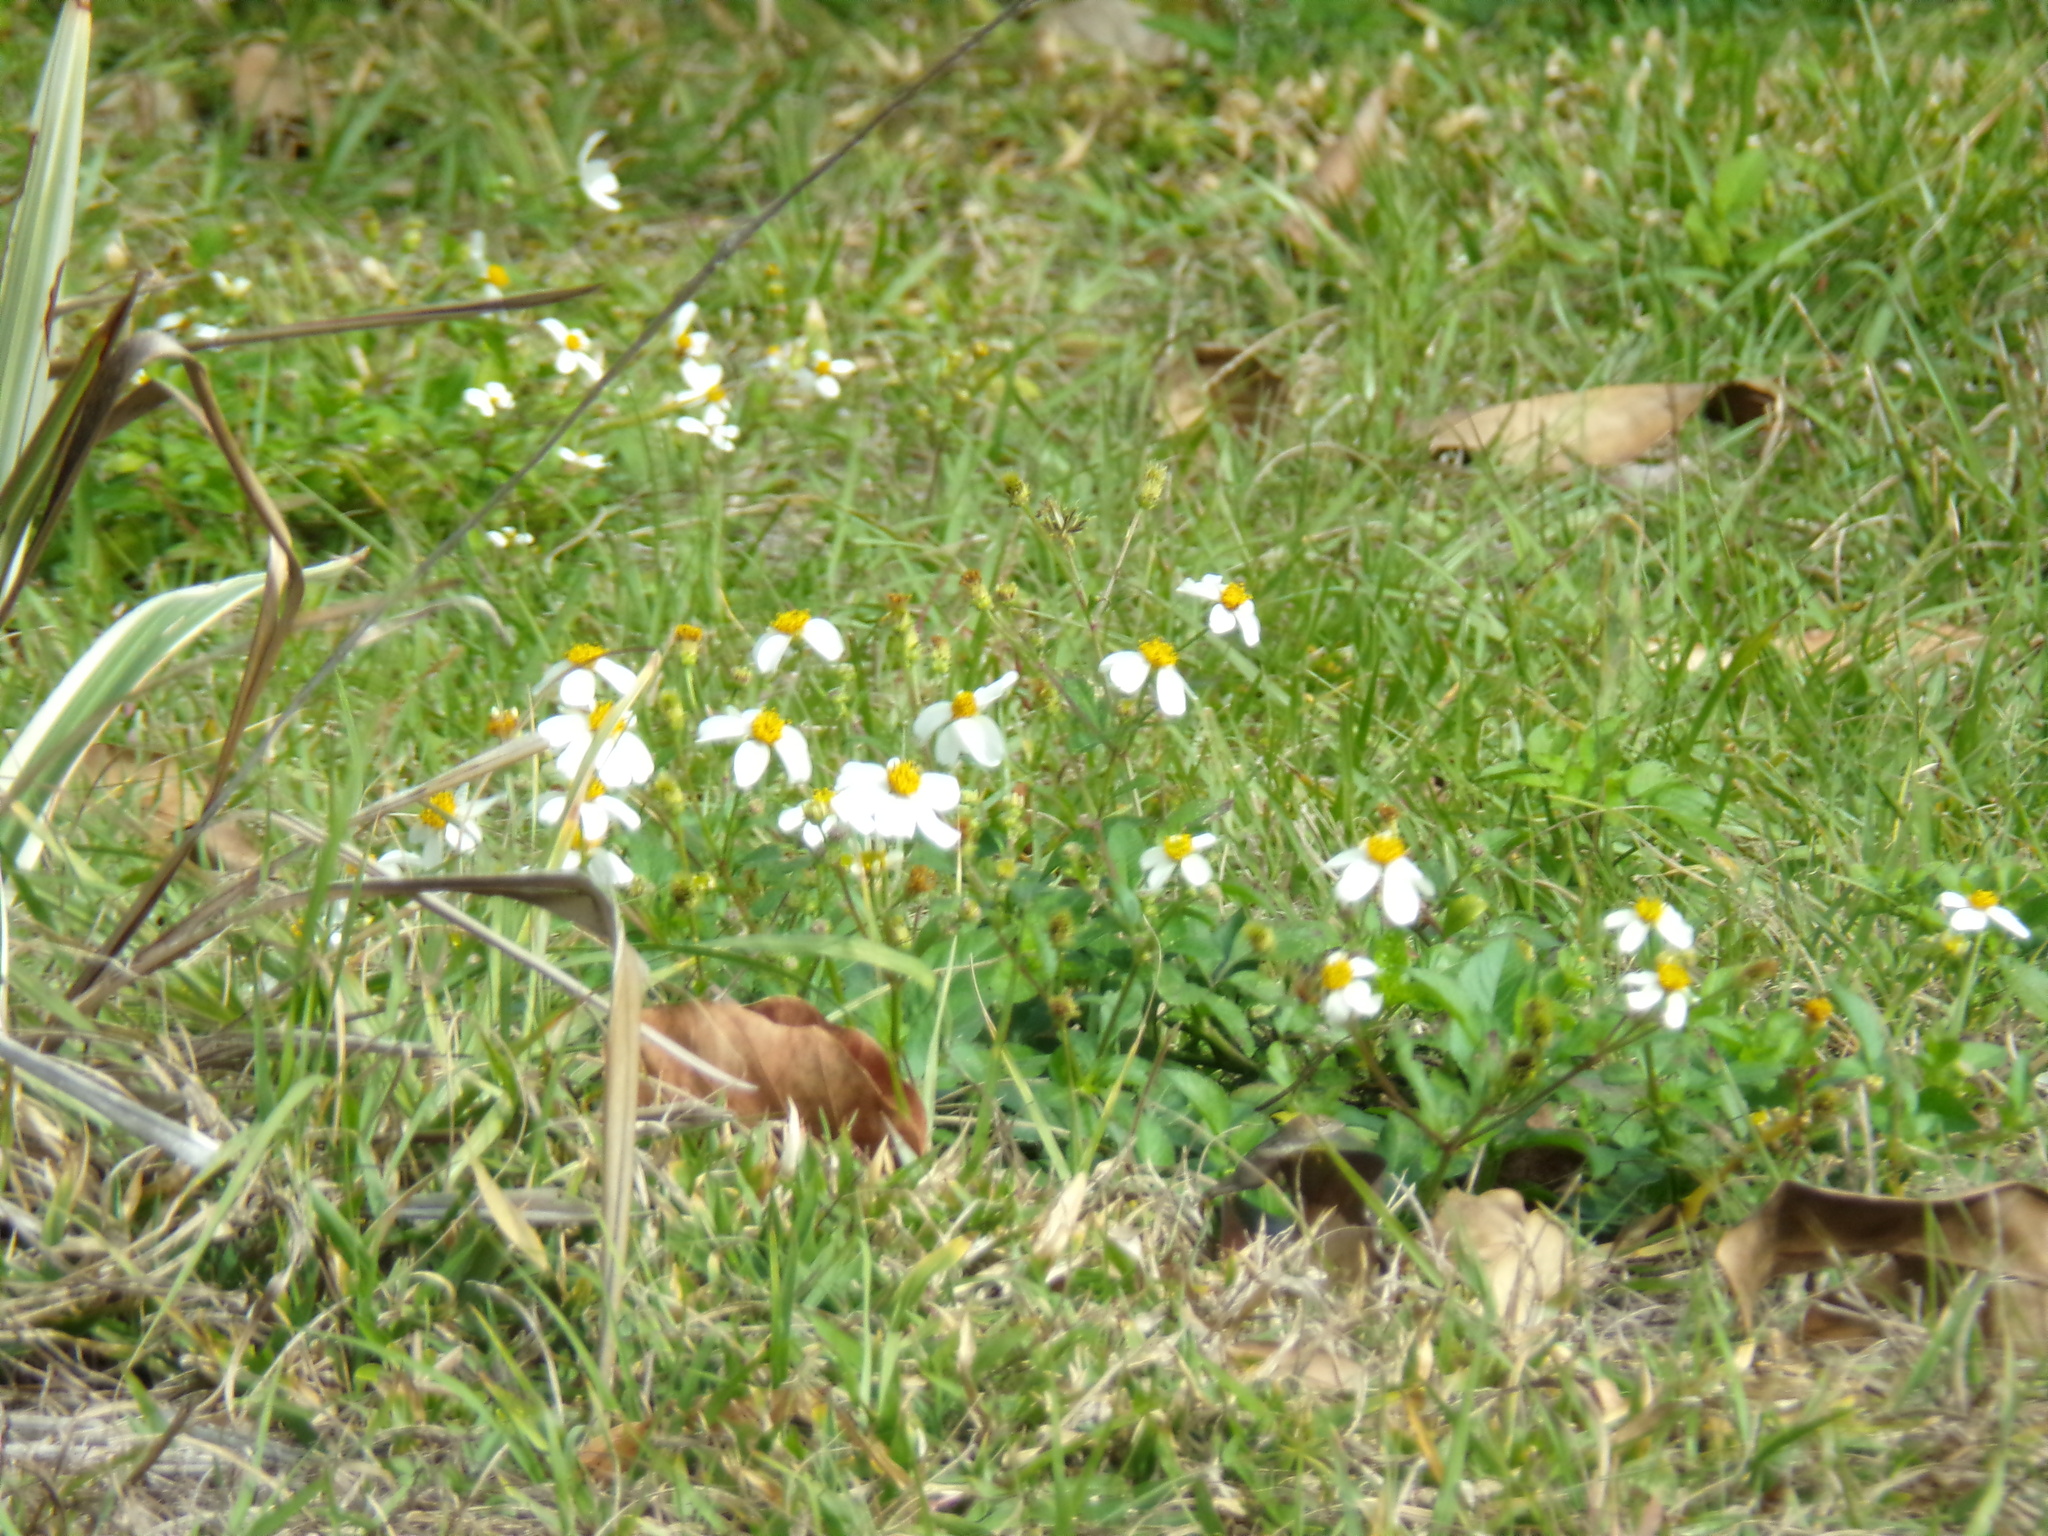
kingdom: Plantae
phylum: Tracheophyta
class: Magnoliopsida
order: Asterales
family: Asteraceae
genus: Bidens
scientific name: Bidens alba
